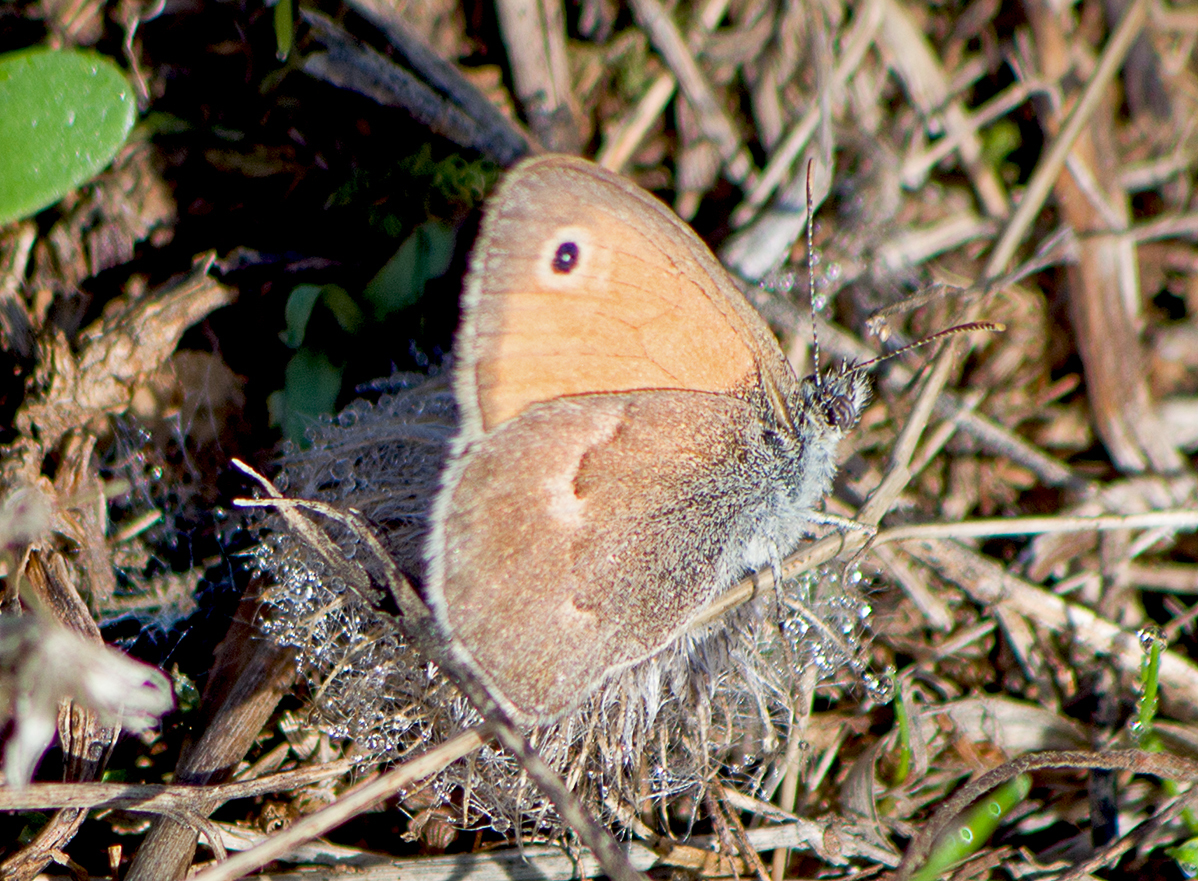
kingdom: Animalia
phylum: Arthropoda
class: Insecta
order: Lepidoptera
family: Nymphalidae
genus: Coenonympha
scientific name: Coenonympha pamphilus
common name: Small heath
